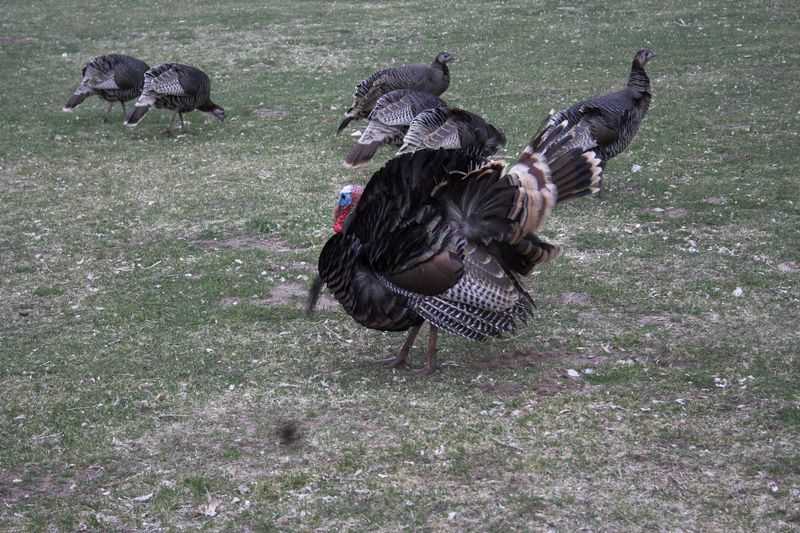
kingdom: Animalia
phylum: Chordata
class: Aves
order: Galliformes
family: Phasianidae
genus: Meleagris
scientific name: Meleagris gallopavo
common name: Wild turkey
